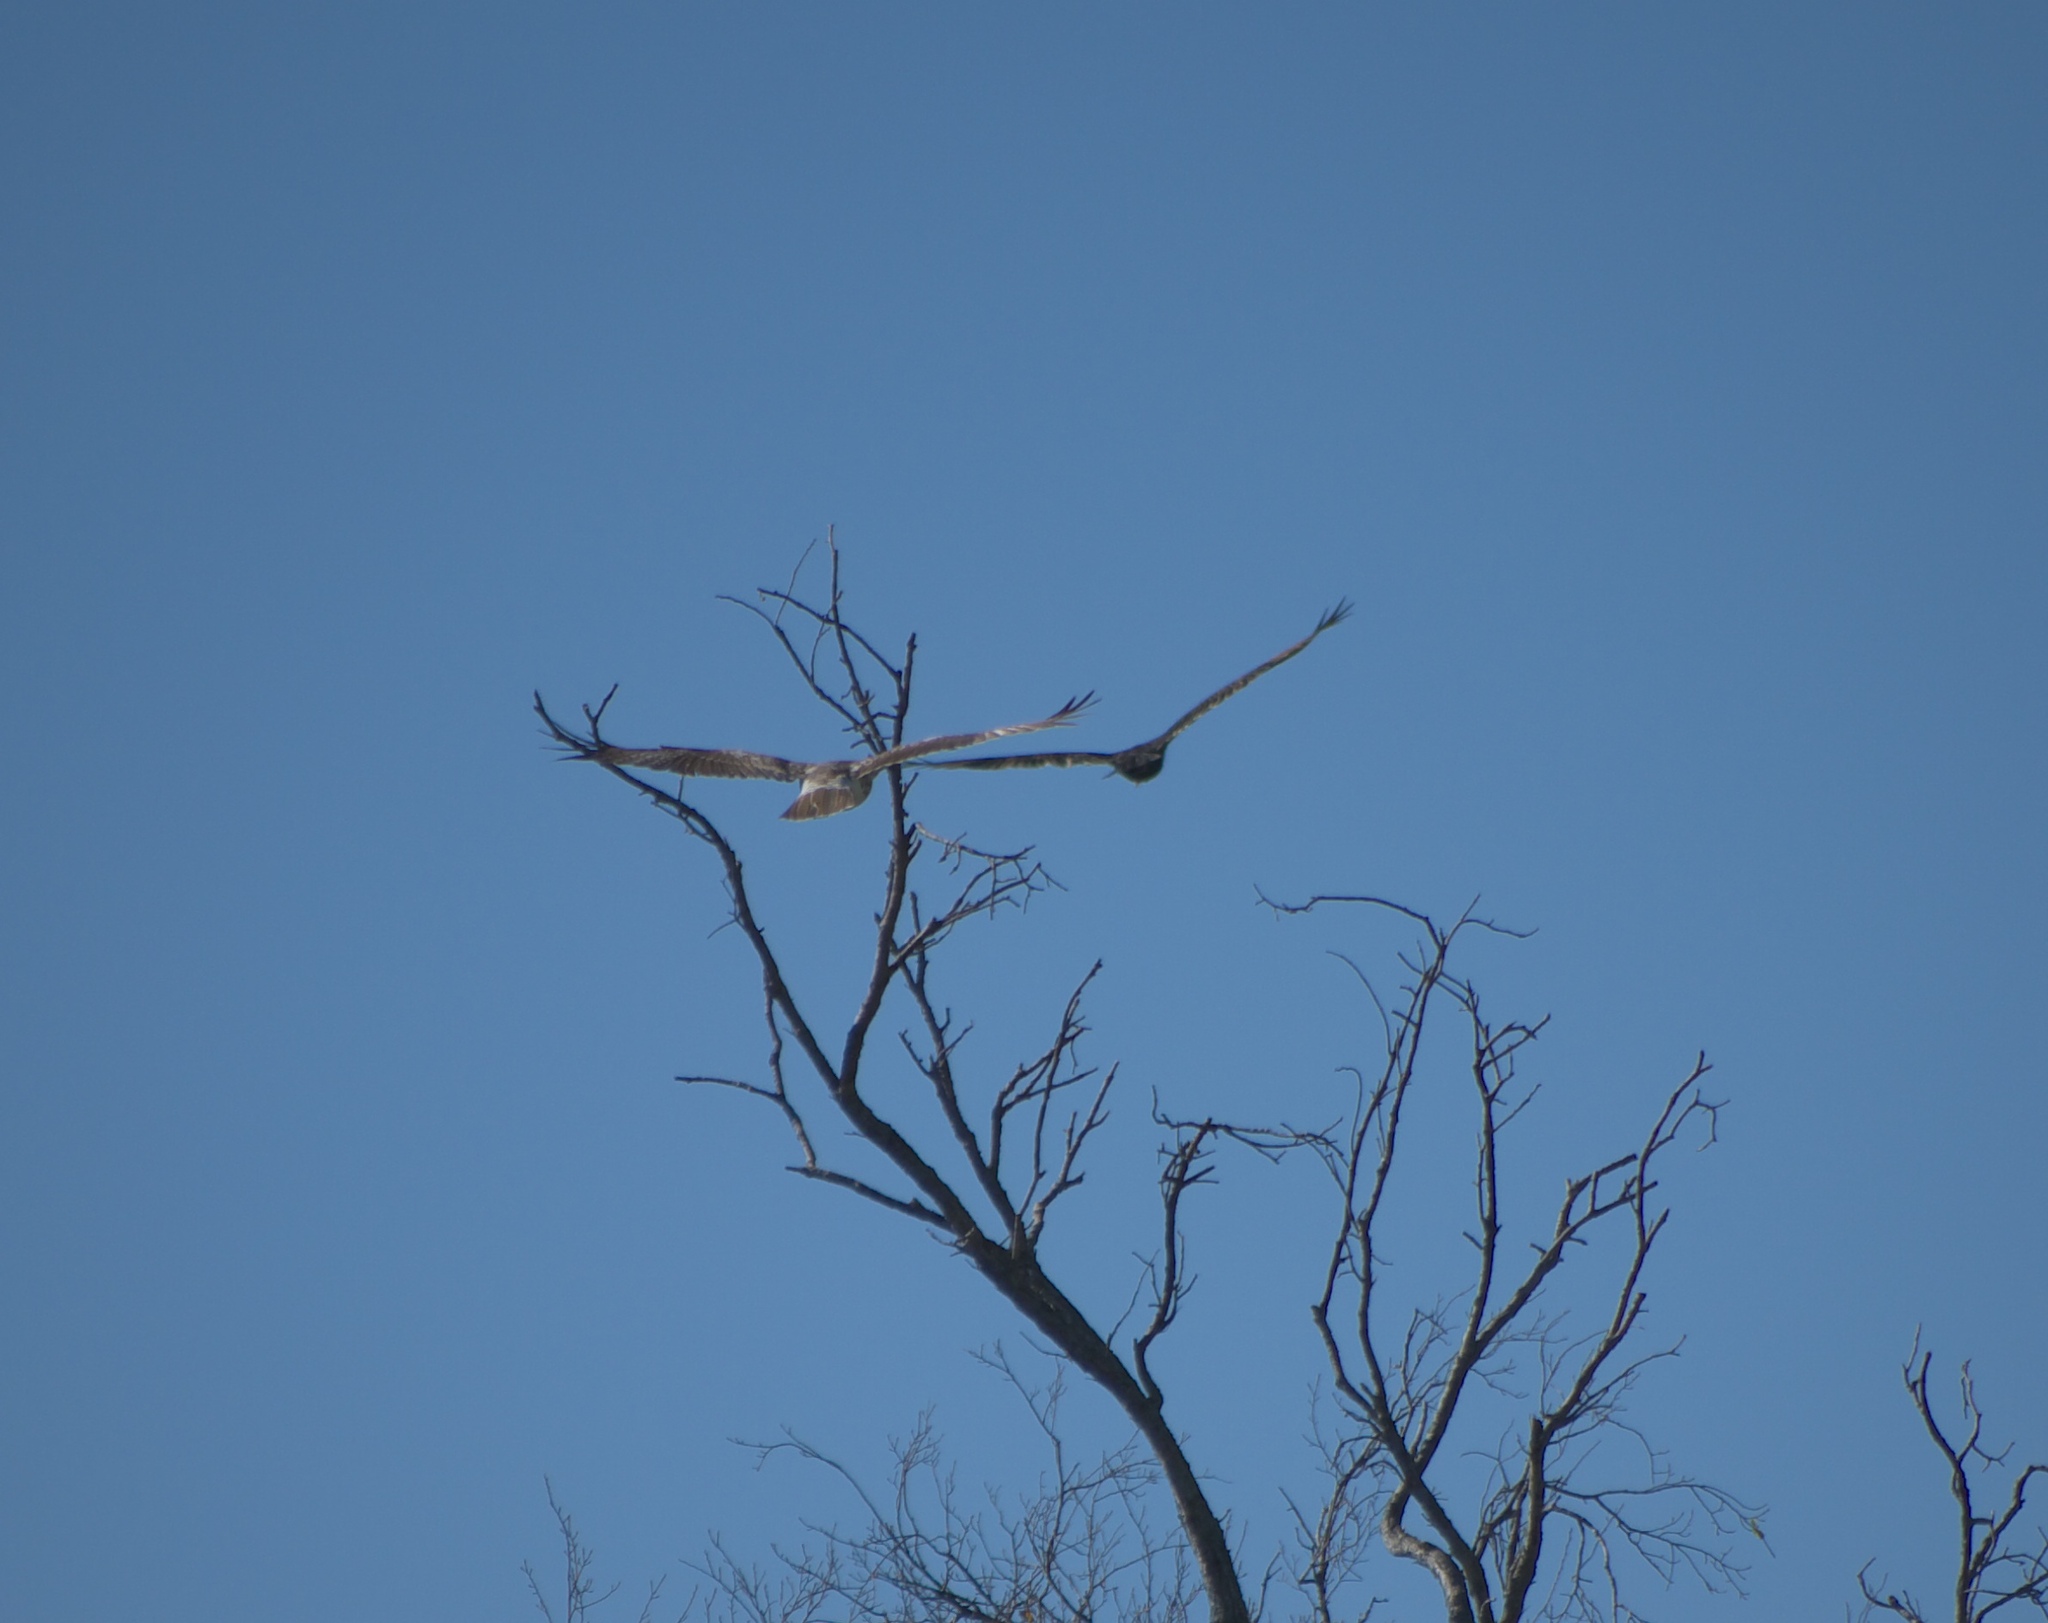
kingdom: Animalia
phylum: Chordata
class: Aves
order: Accipitriformes
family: Accipitridae
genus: Buteo
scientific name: Buteo jamaicensis
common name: Red-tailed hawk
